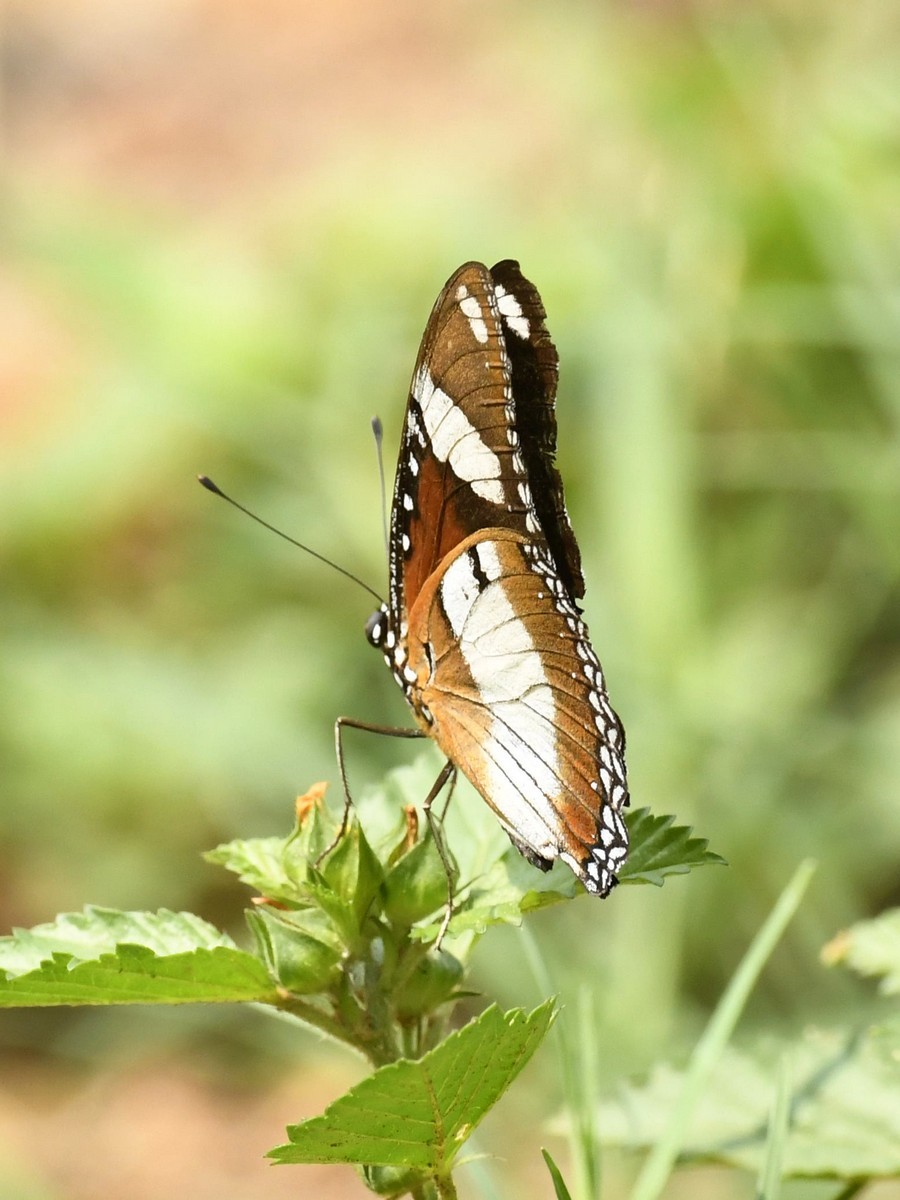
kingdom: Animalia
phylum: Arthropoda
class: Insecta
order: Lepidoptera
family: Nymphalidae
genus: Hypolimnas
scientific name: Hypolimnas misippus
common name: False plain tiger
